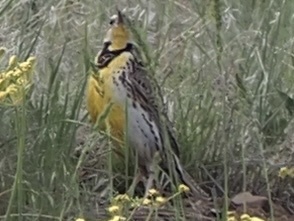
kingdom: Animalia
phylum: Chordata
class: Aves
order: Passeriformes
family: Icteridae
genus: Sturnella
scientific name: Sturnella neglecta
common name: Western meadowlark
